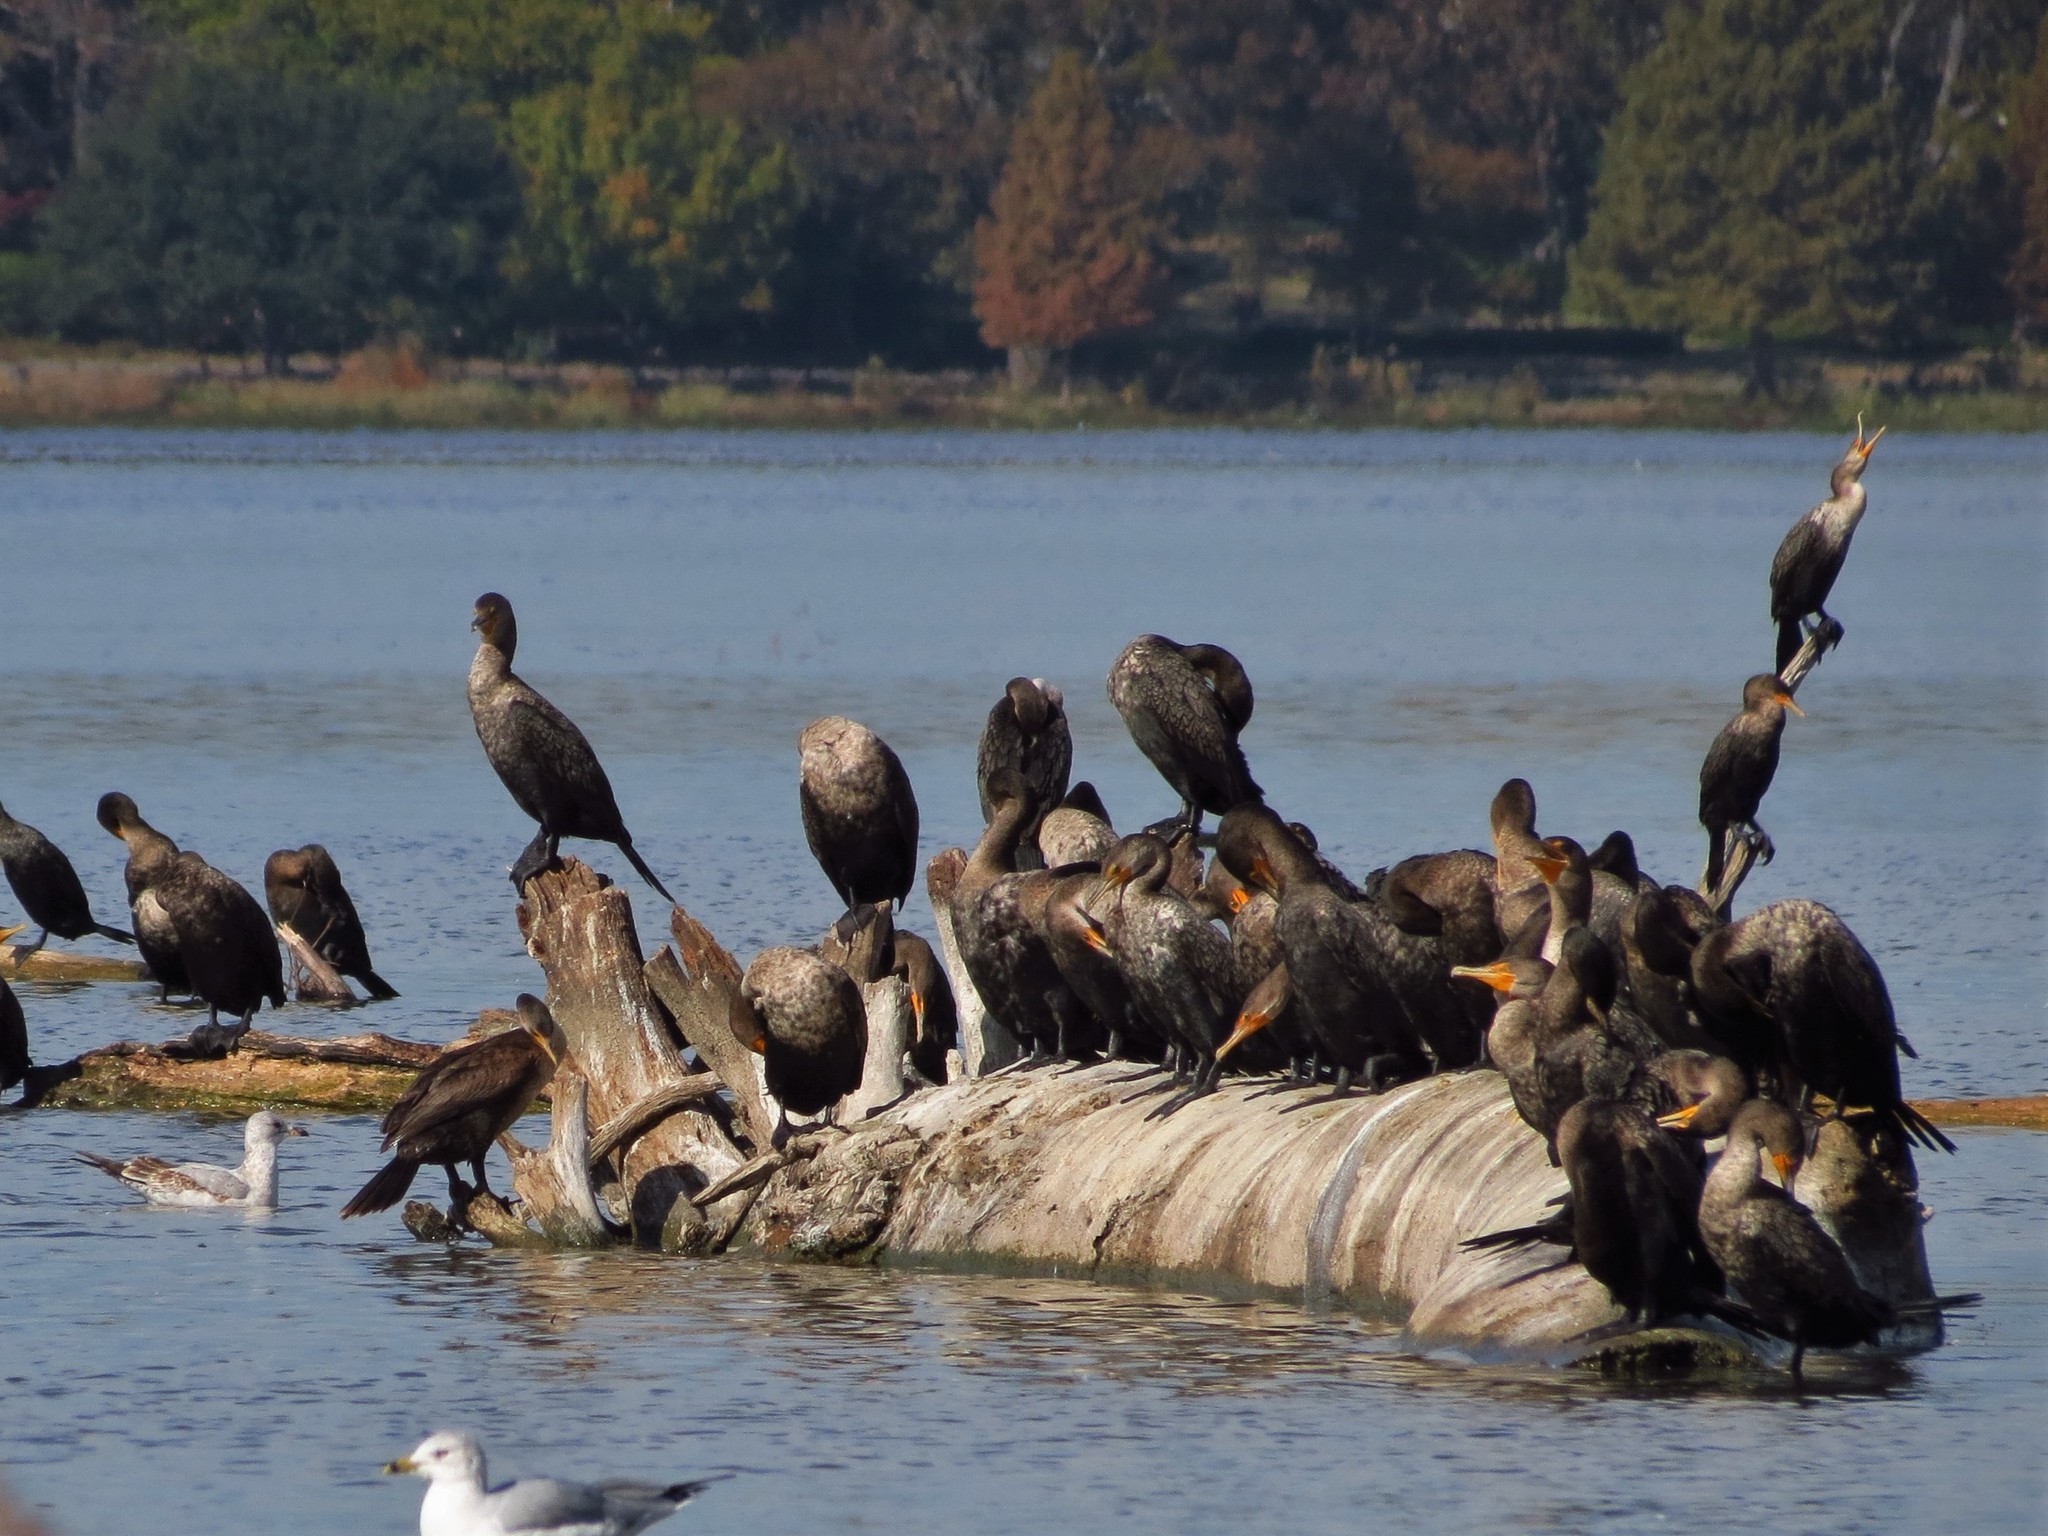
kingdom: Animalia
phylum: Chordata
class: Aves
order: Suliformes
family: Phalacrocoracidae
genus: Phalacrocorax
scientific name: Phalacrocorax auritus
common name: Double-crested cormorant
